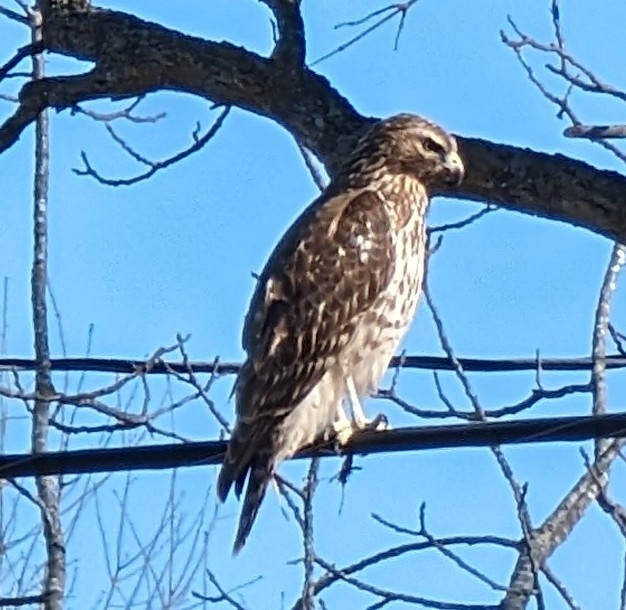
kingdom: Animalia
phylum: Chordata
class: Aves
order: Accipitriformes
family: Accipitridae
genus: Buteo
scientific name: Buteo lineatus
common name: Red-shouldered hawk
